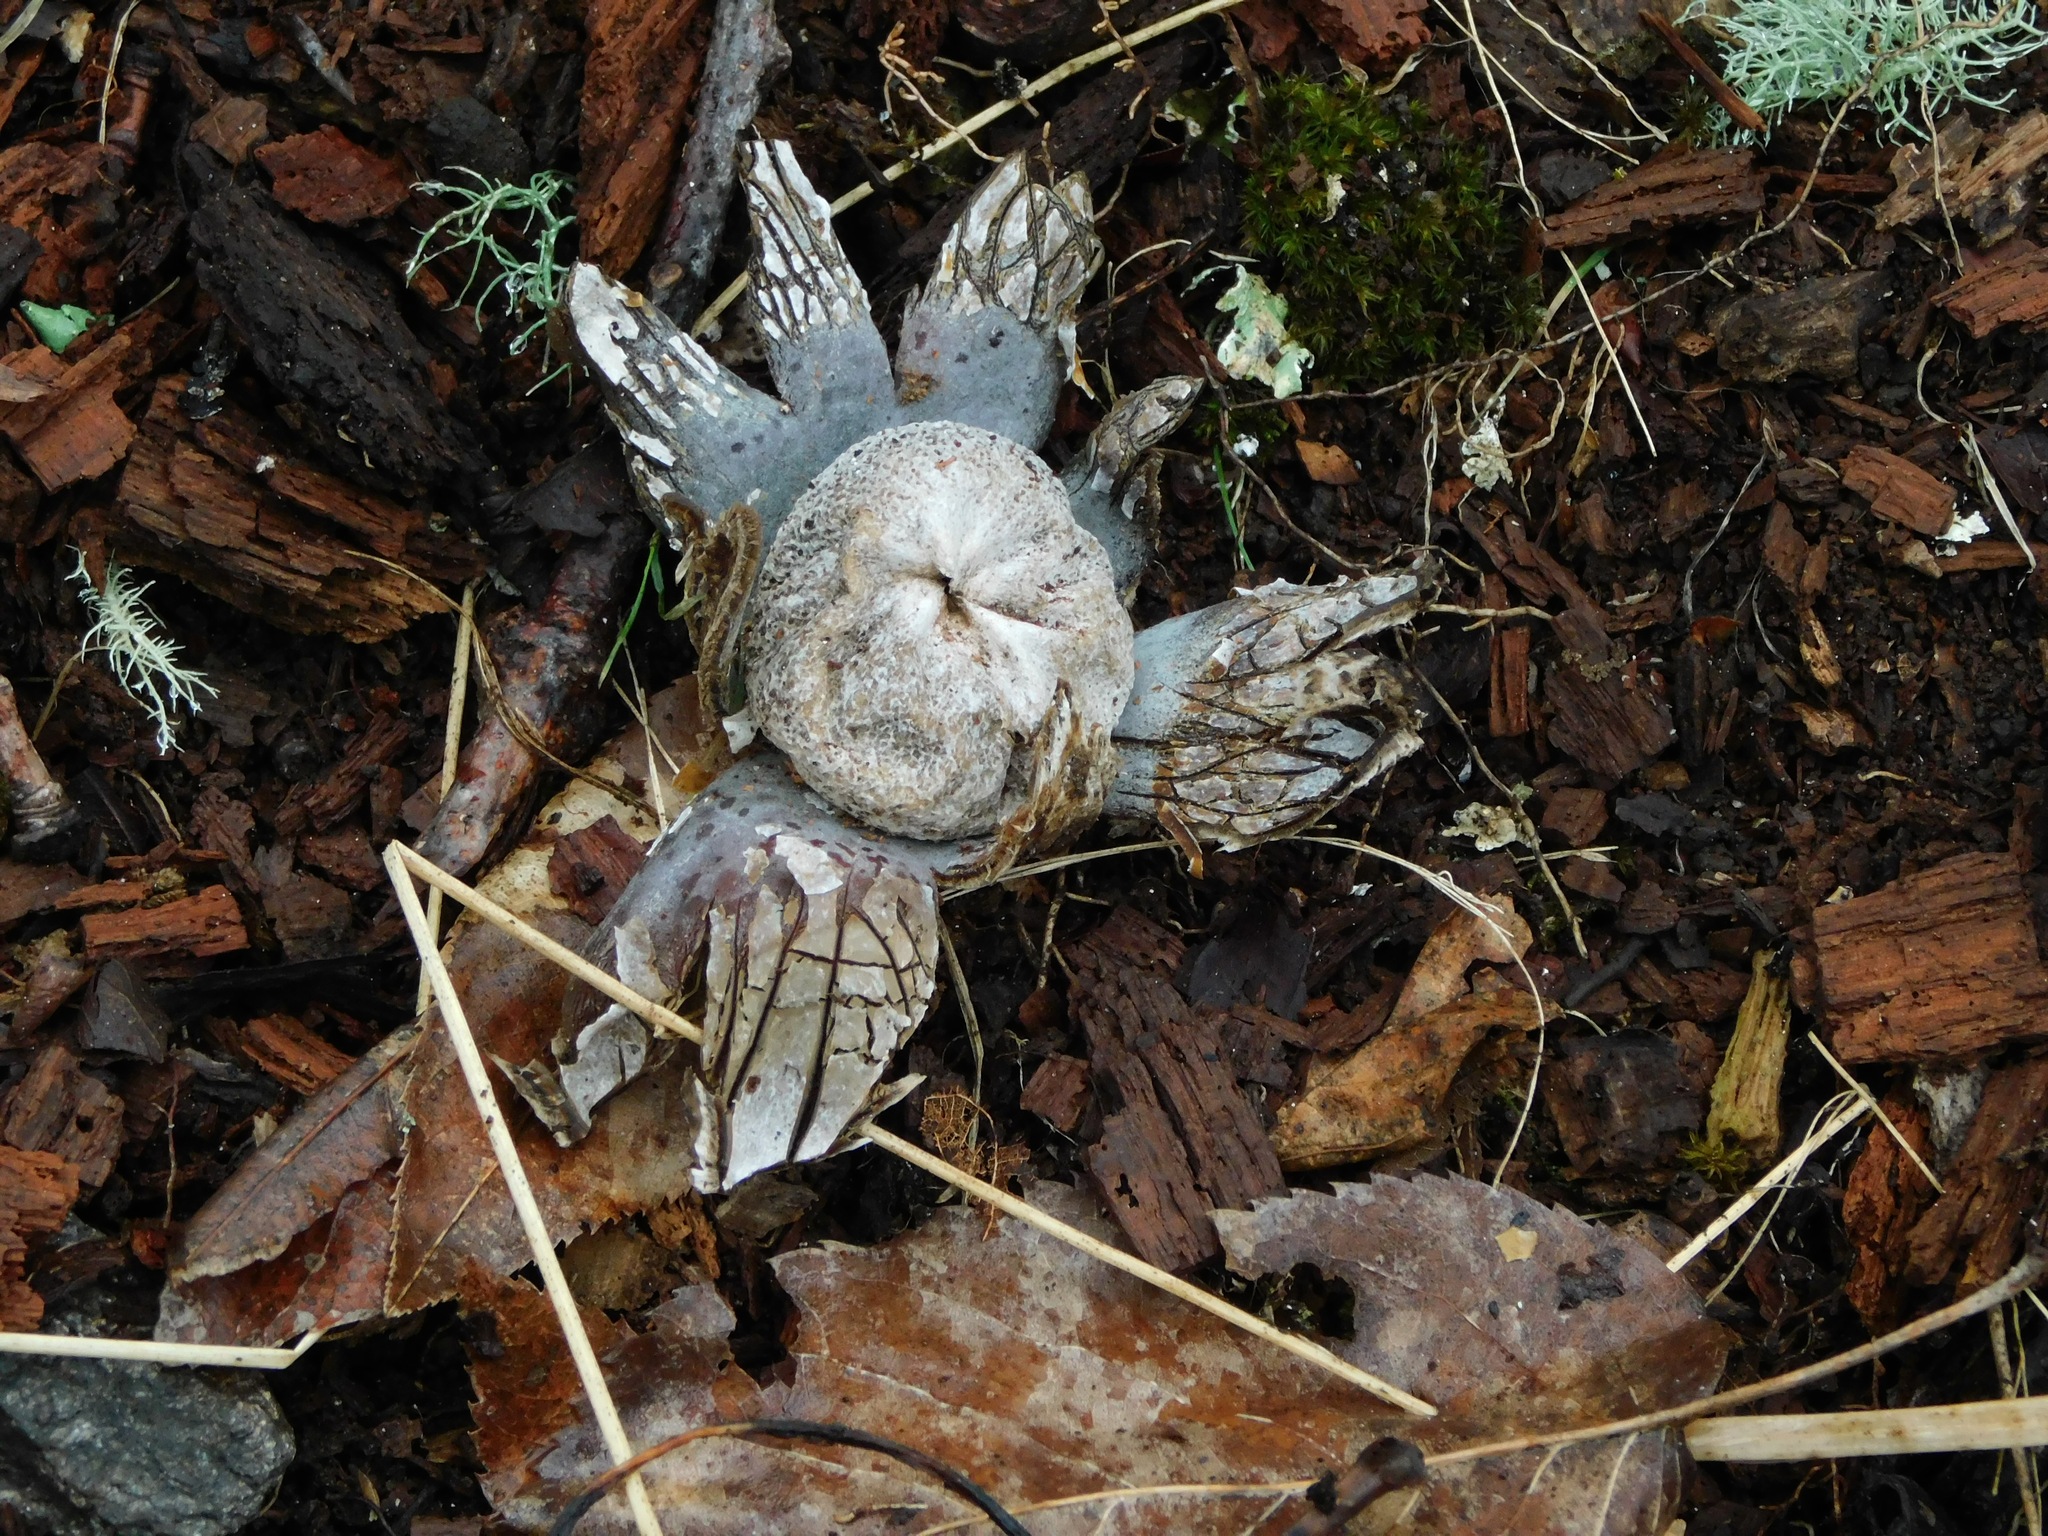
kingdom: Fungi
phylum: Basidiomycota
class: Agaricomycetes
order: Boletales
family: Diplocystidiaceae
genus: Astraeus
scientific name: Astraeus hygrometricus
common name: Barometer earthstar
